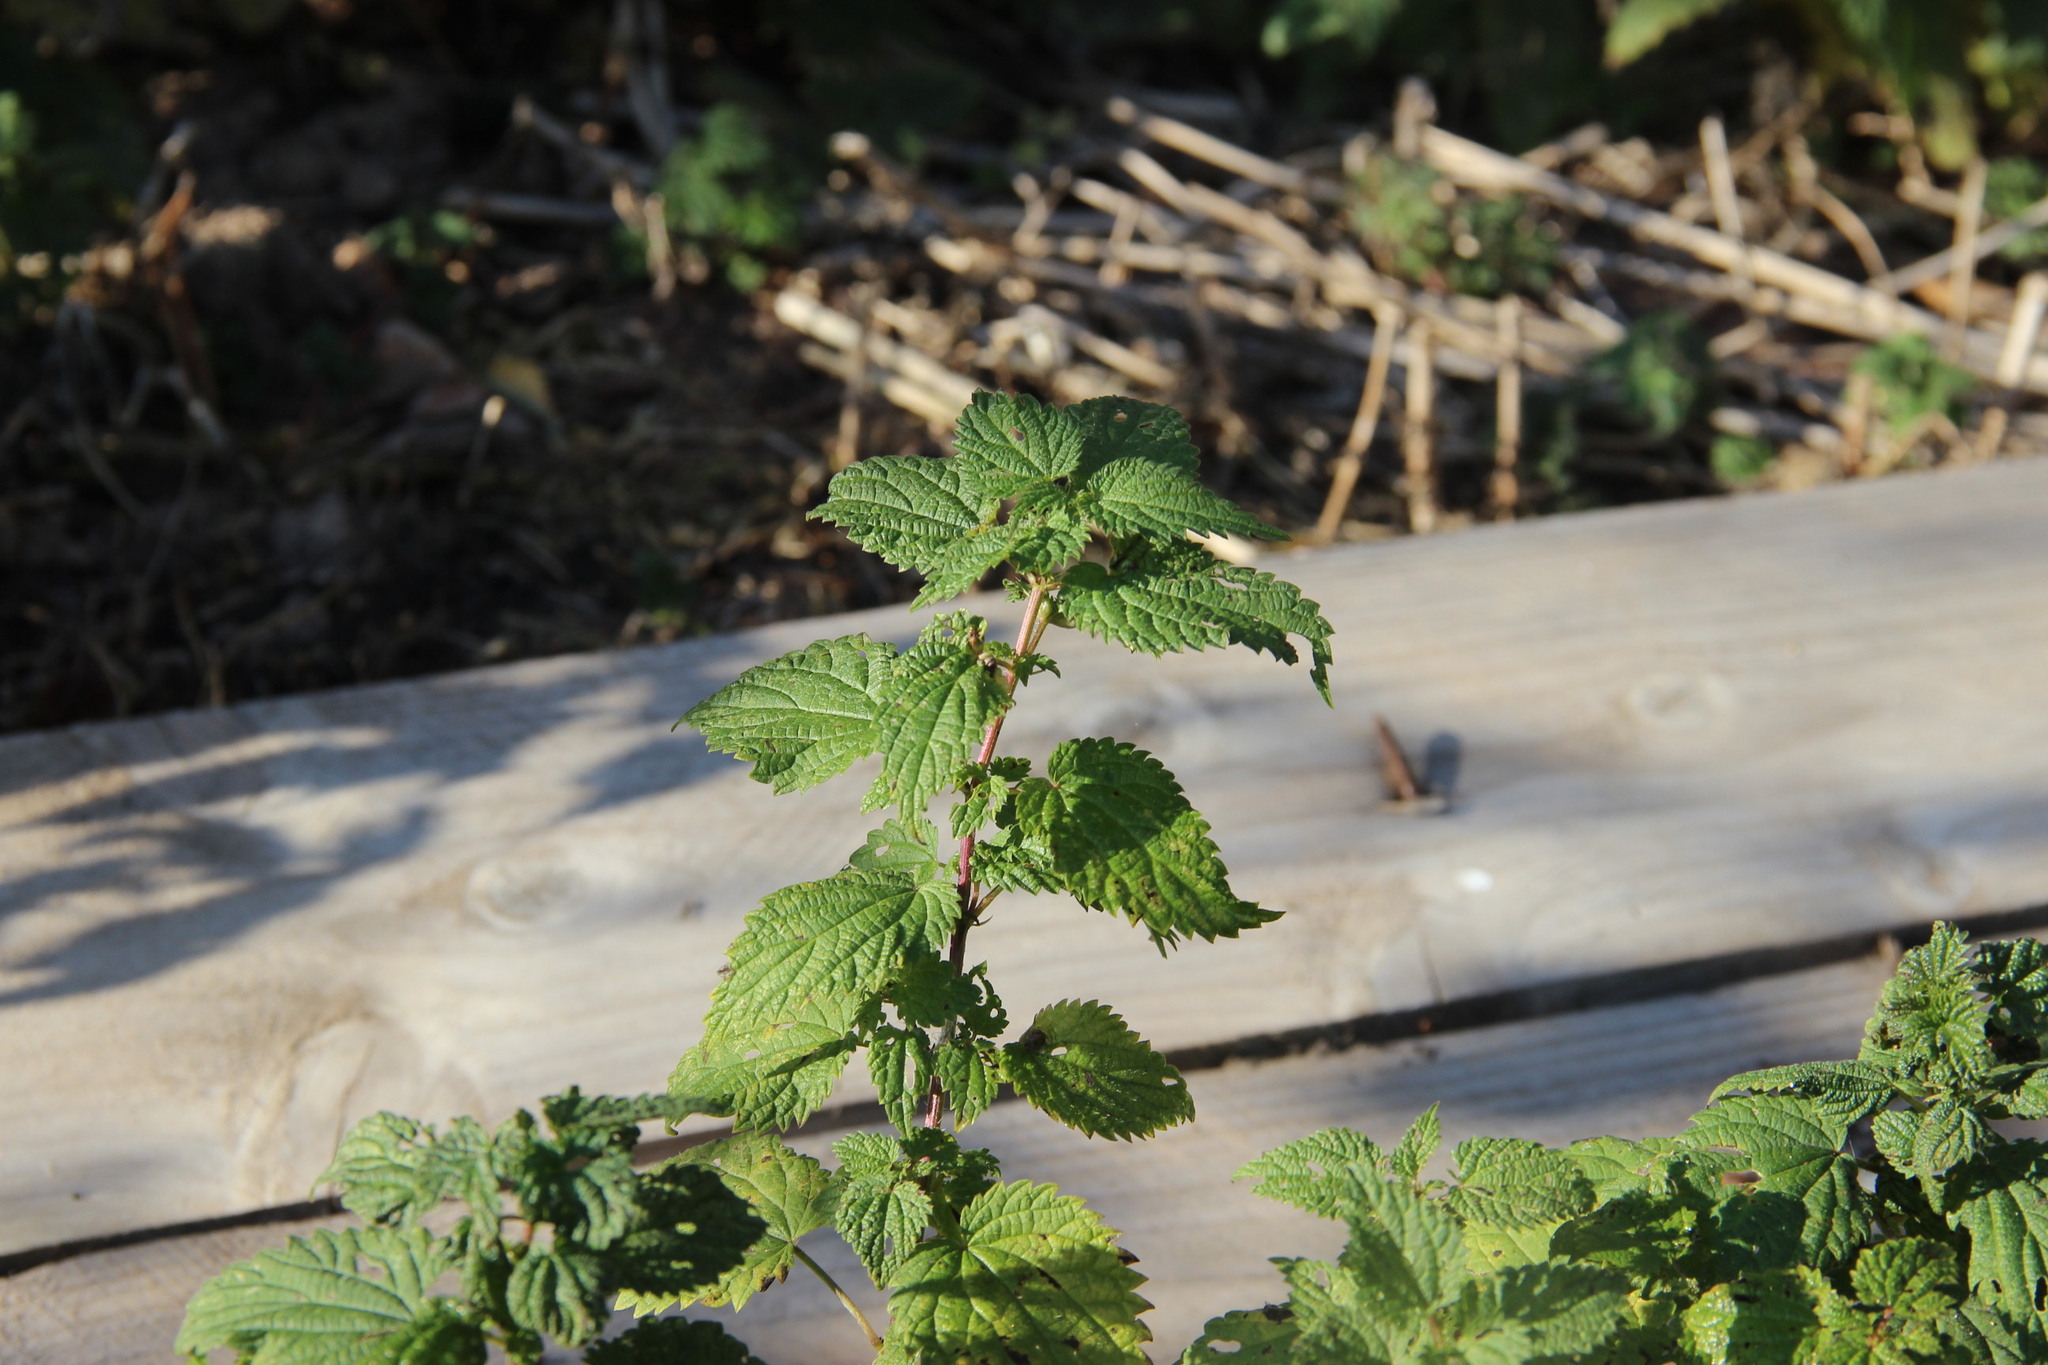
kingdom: Plantae
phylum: Tracheophyta
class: Magnoliopsida
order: Rosales
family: Urticaceae
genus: Urtica
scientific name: Urtica dioica
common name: Common nettle
